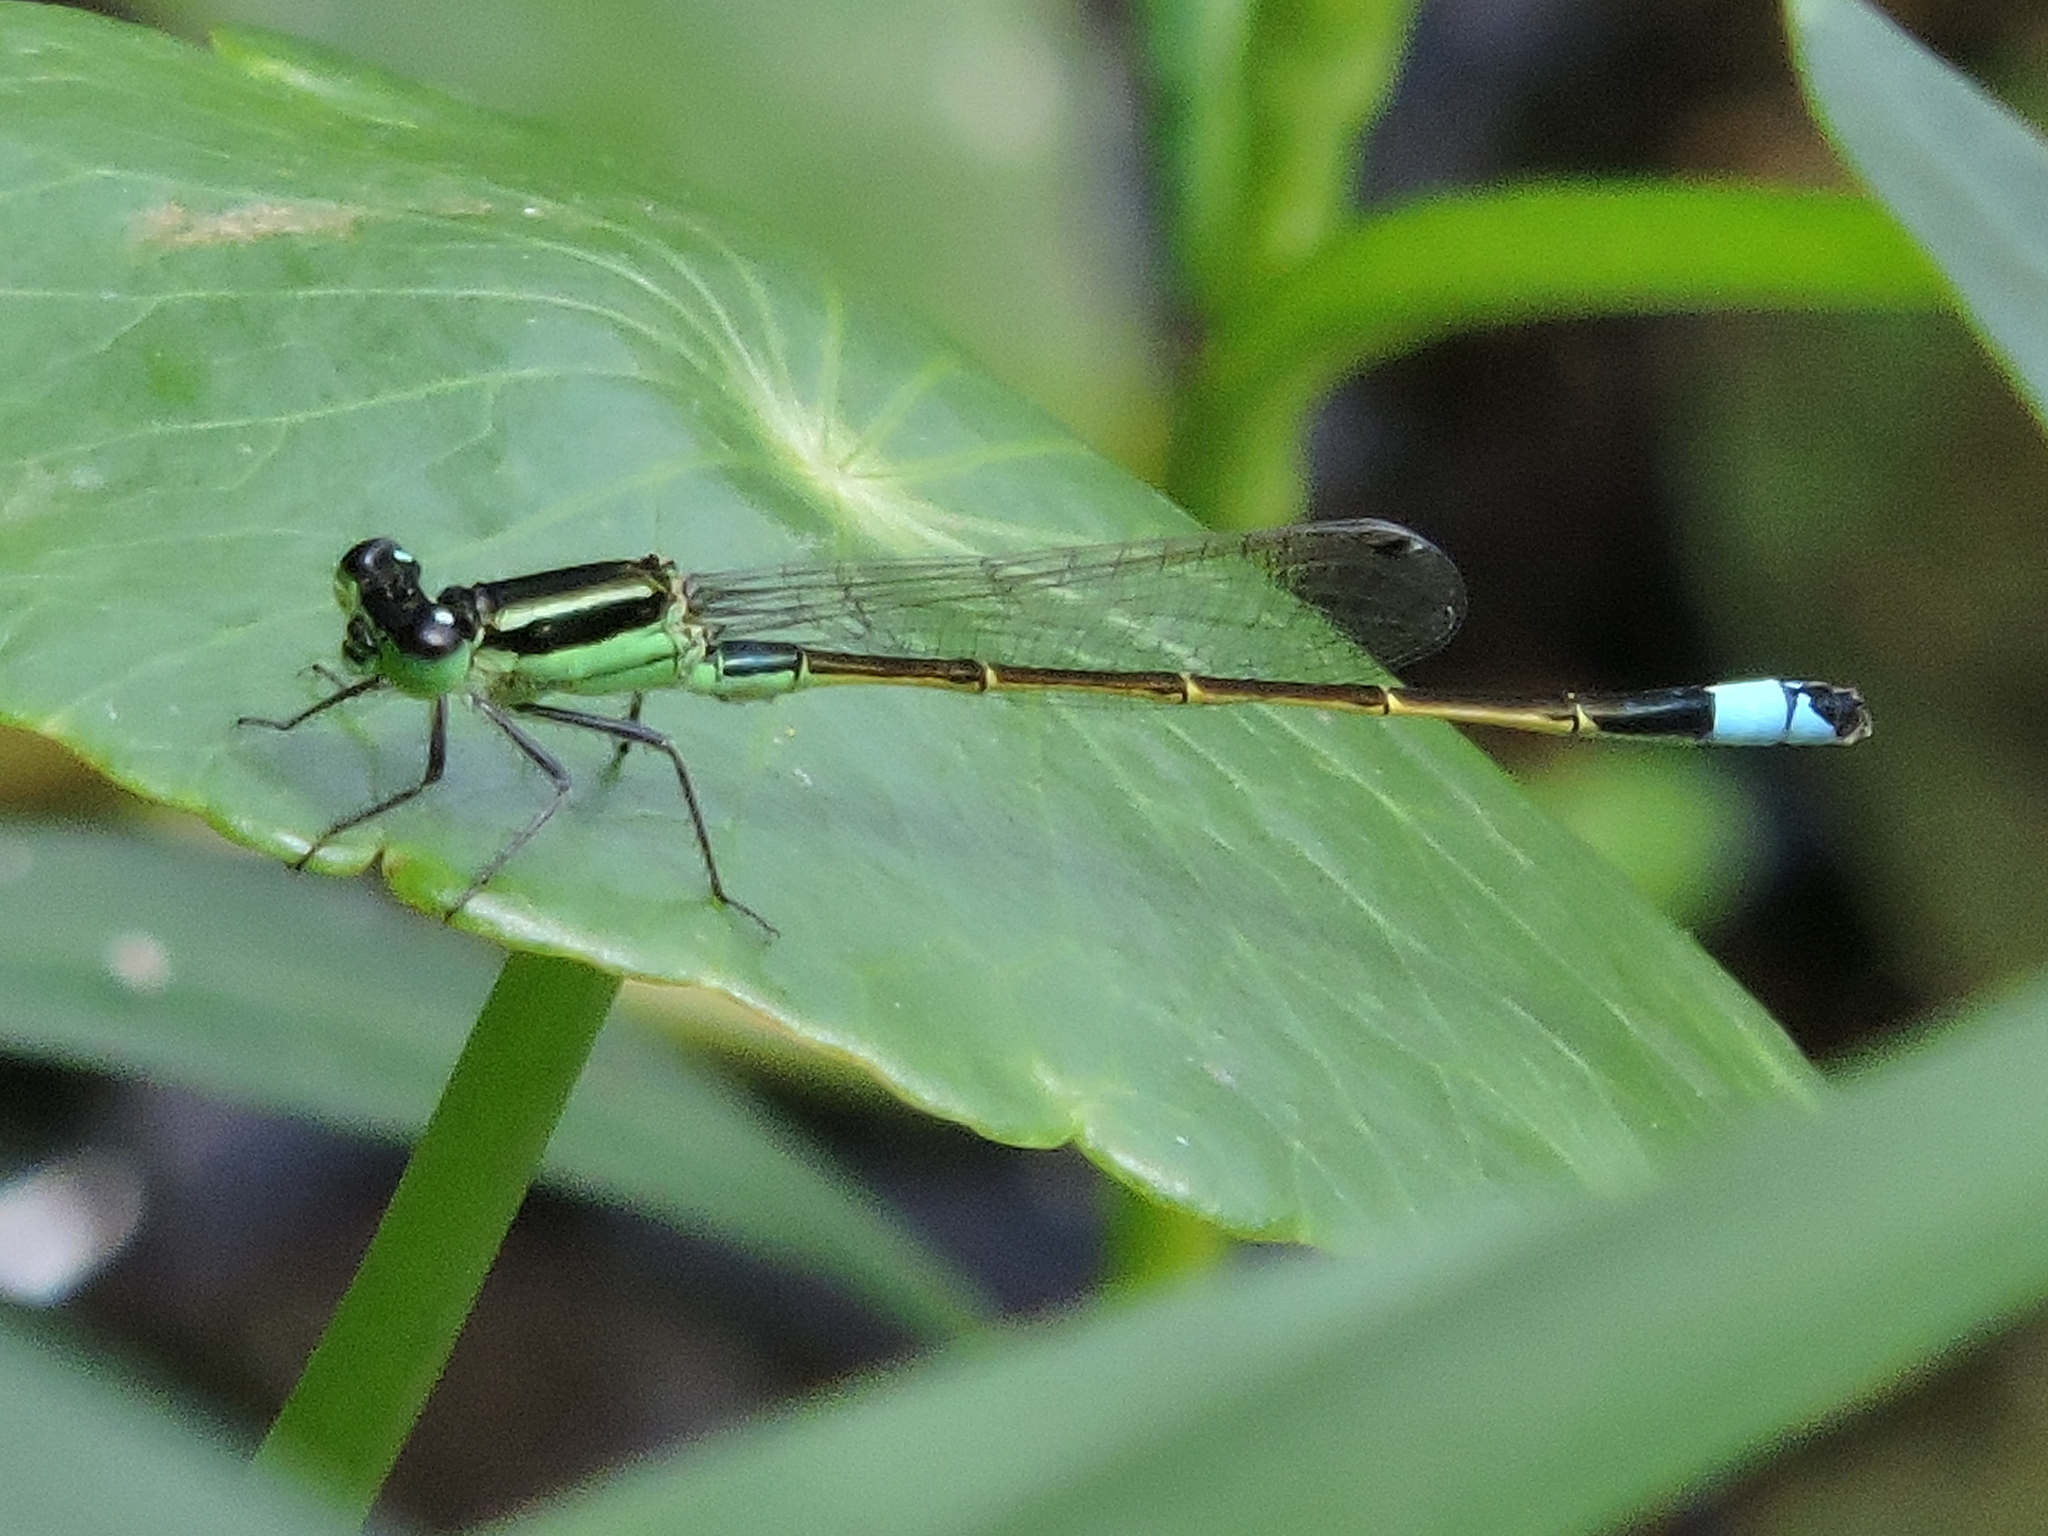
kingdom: Animalia
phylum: Arthropoda
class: Insecta
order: Odonata
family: Coenagrionidae
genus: Ischnura
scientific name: Ischnura ramburii
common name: Rambur's forktail
